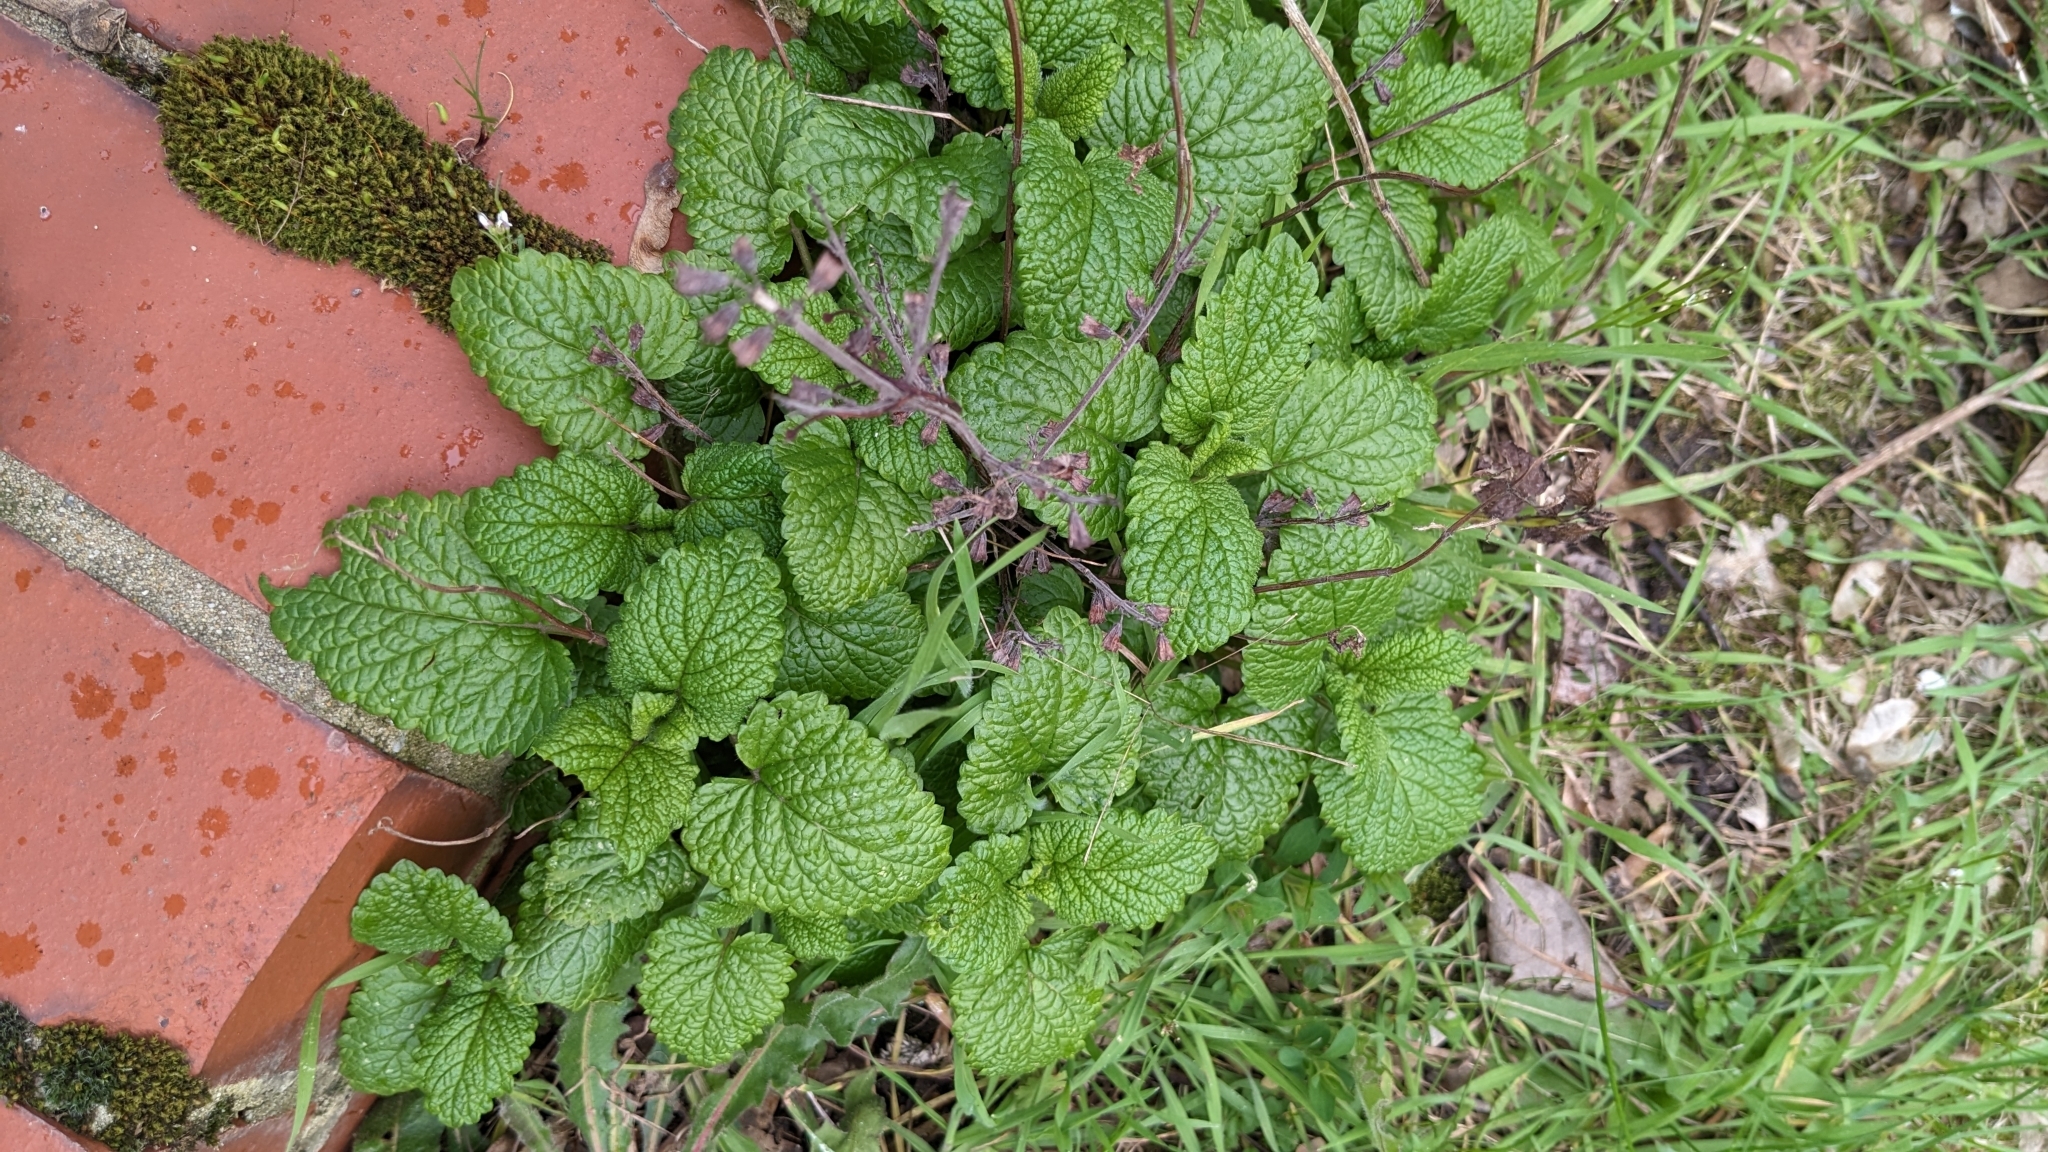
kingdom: Plantae
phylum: Tracheophyta
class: Magnoliopsida
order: Lamiales
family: Lamiaceae
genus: Melissa
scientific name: Melissa officinalis
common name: Balm
